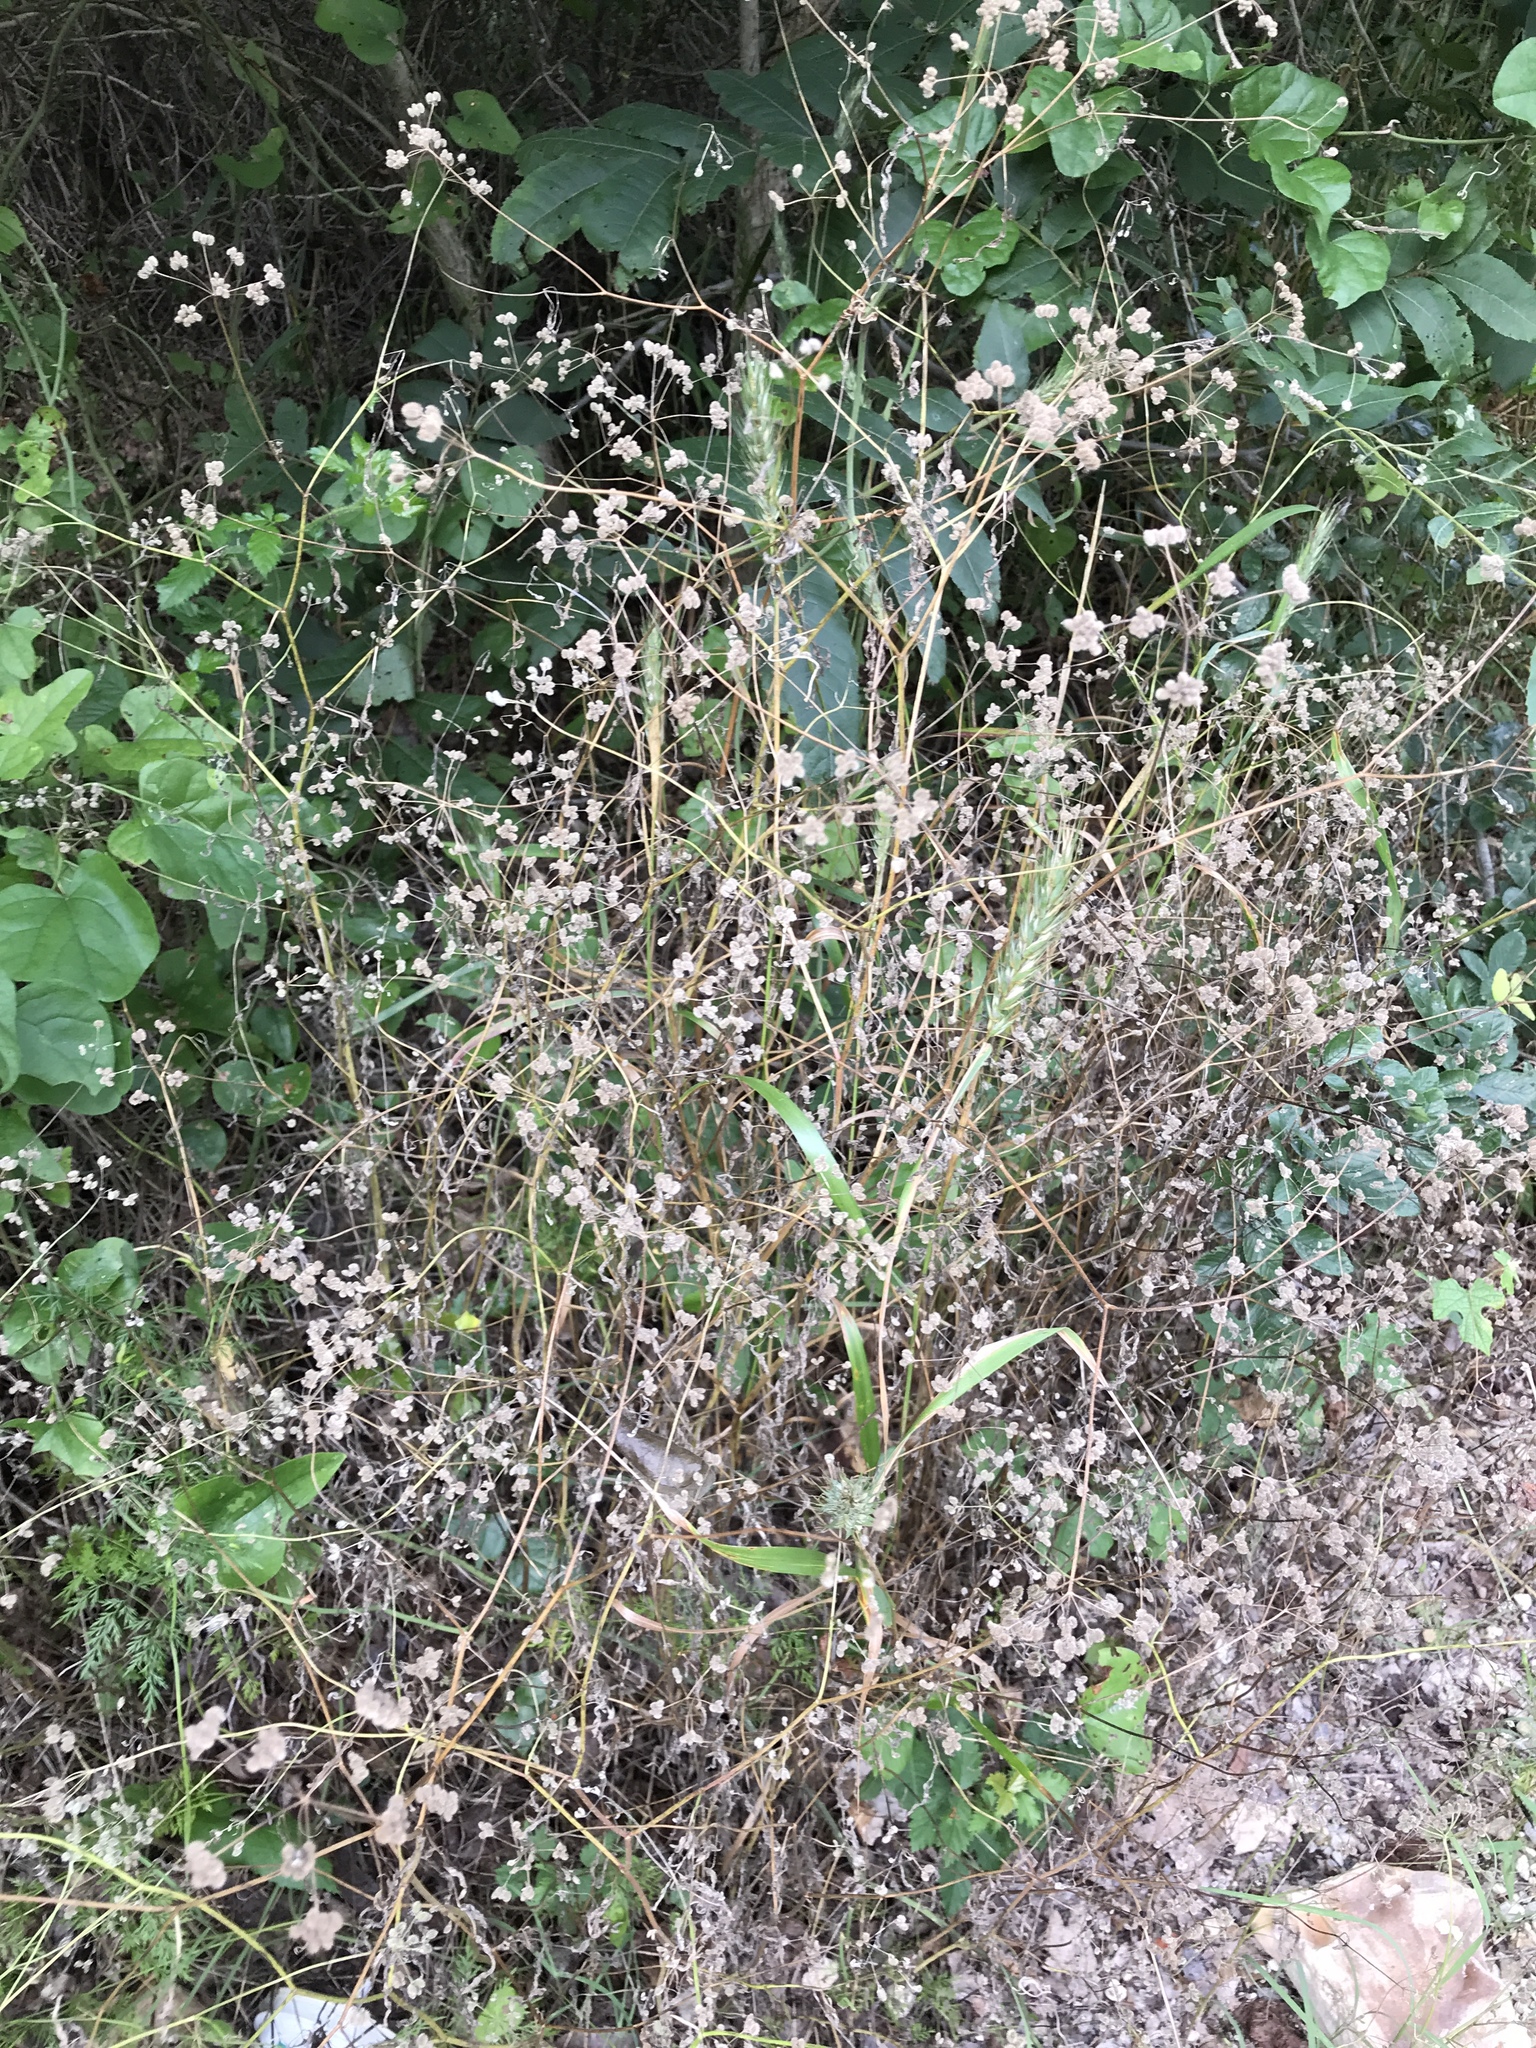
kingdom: Plantae
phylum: Tracheophyta
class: Magnoliopsida
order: Apiales
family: Apiaceae
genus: Torilis
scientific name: Torilis arvensis
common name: Spreading hedge-parsley
